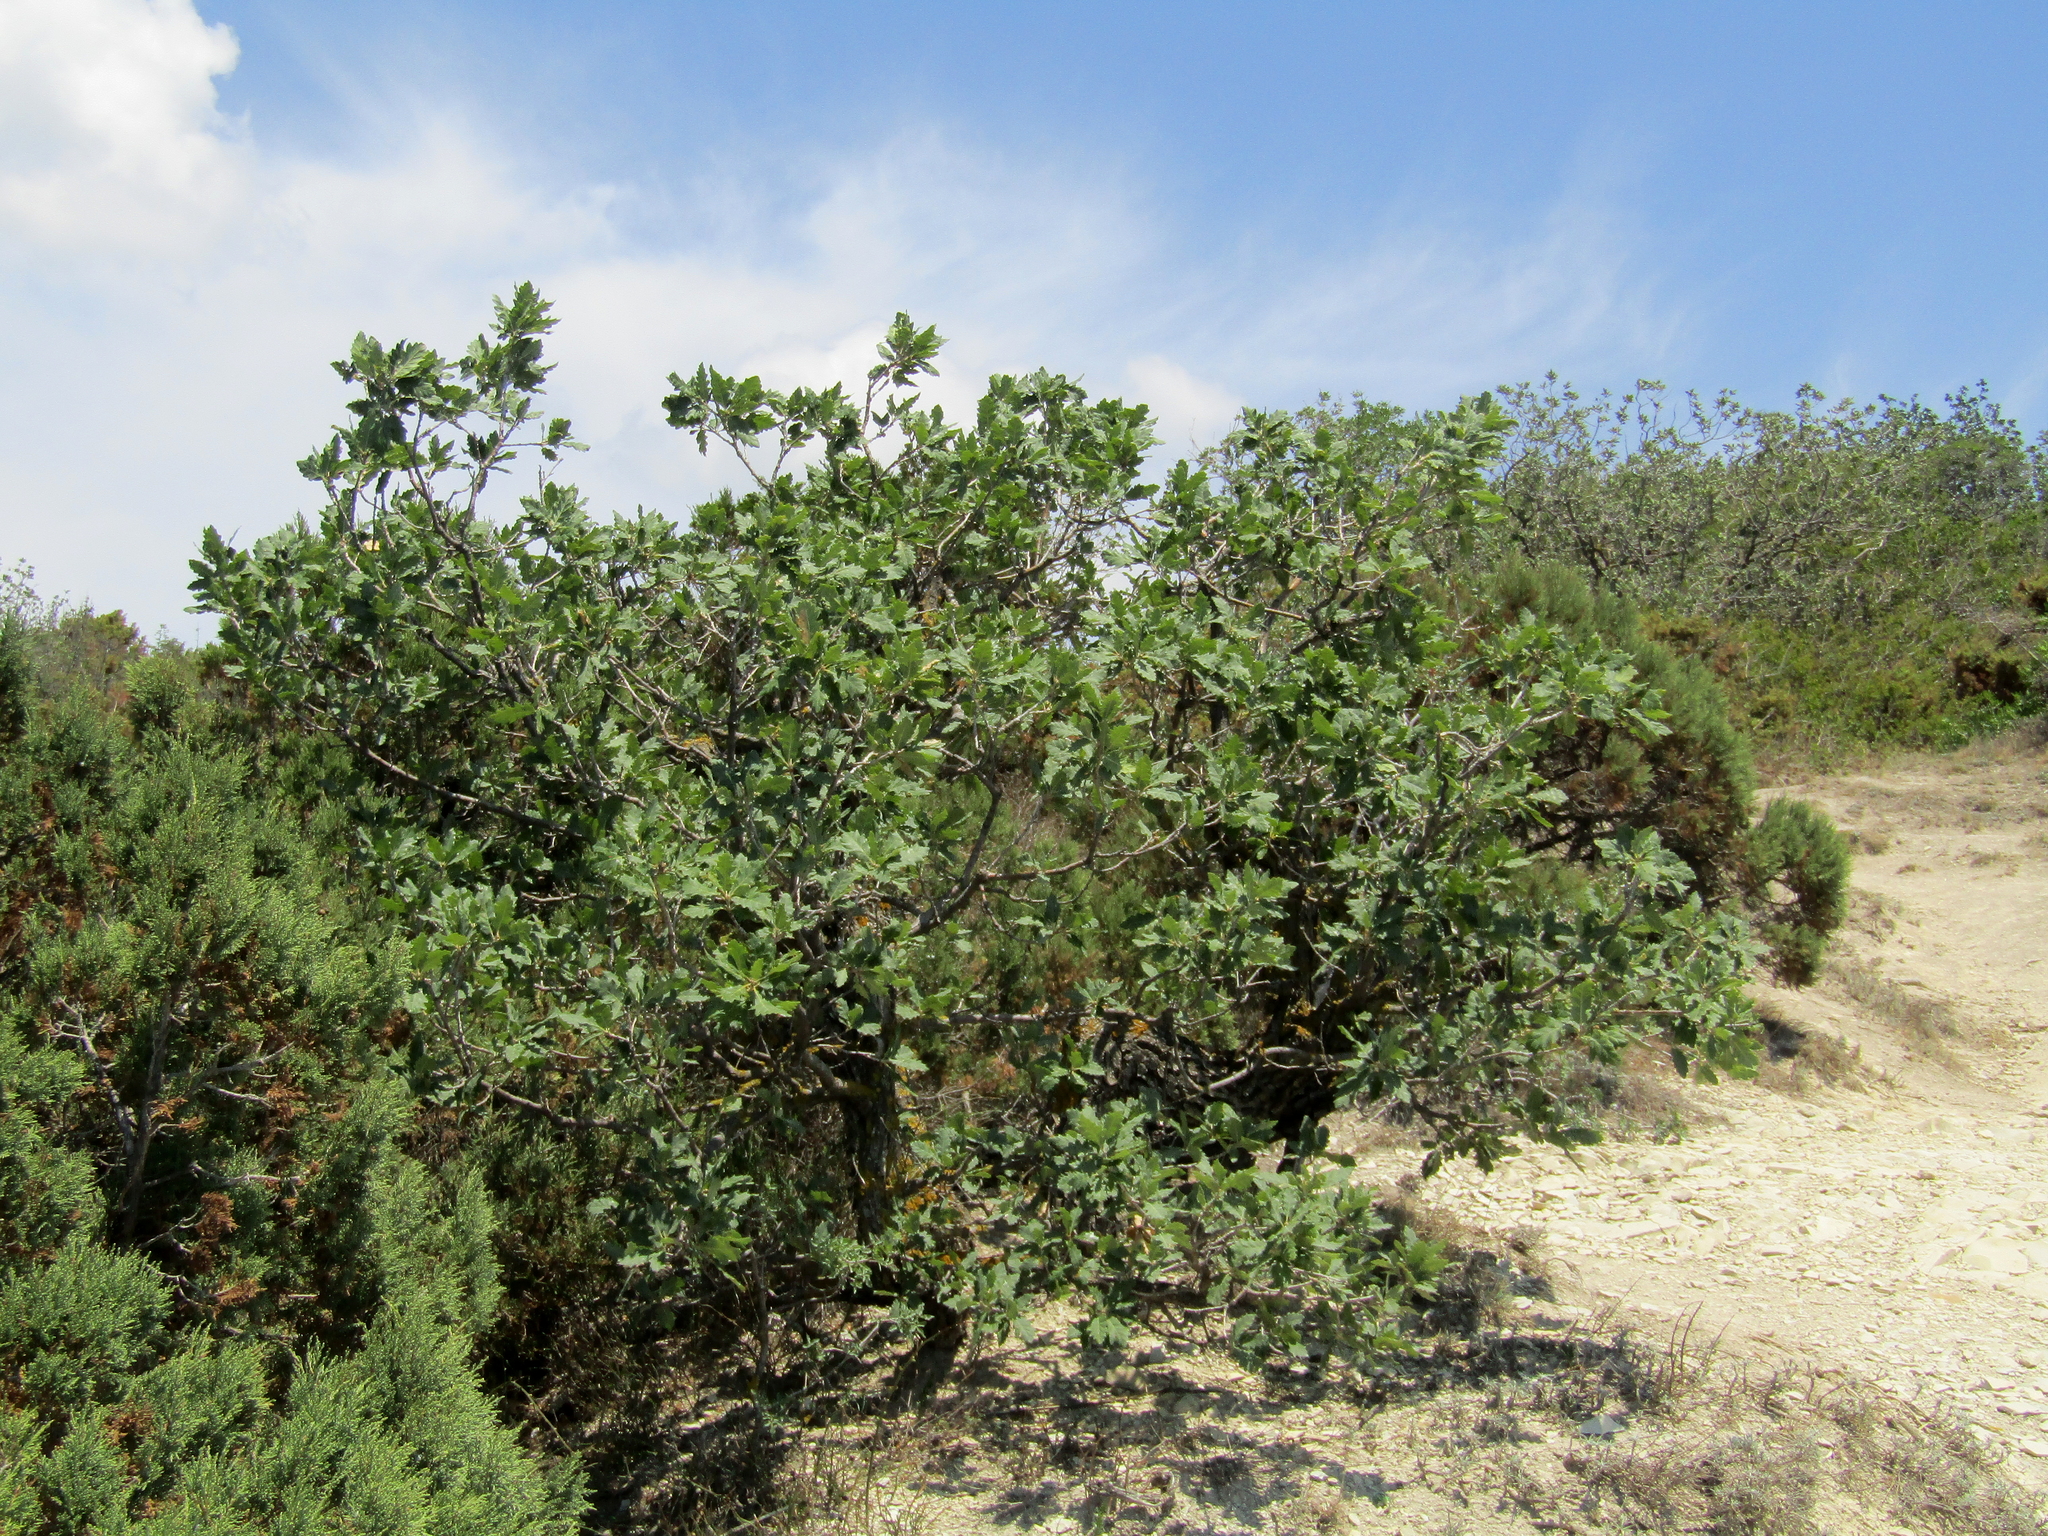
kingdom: Plantae
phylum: Tracheophyta
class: Magnoliopsida
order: Fagales
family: Fagaceae
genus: Quercus
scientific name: Quercus pubescens
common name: Downy oak
